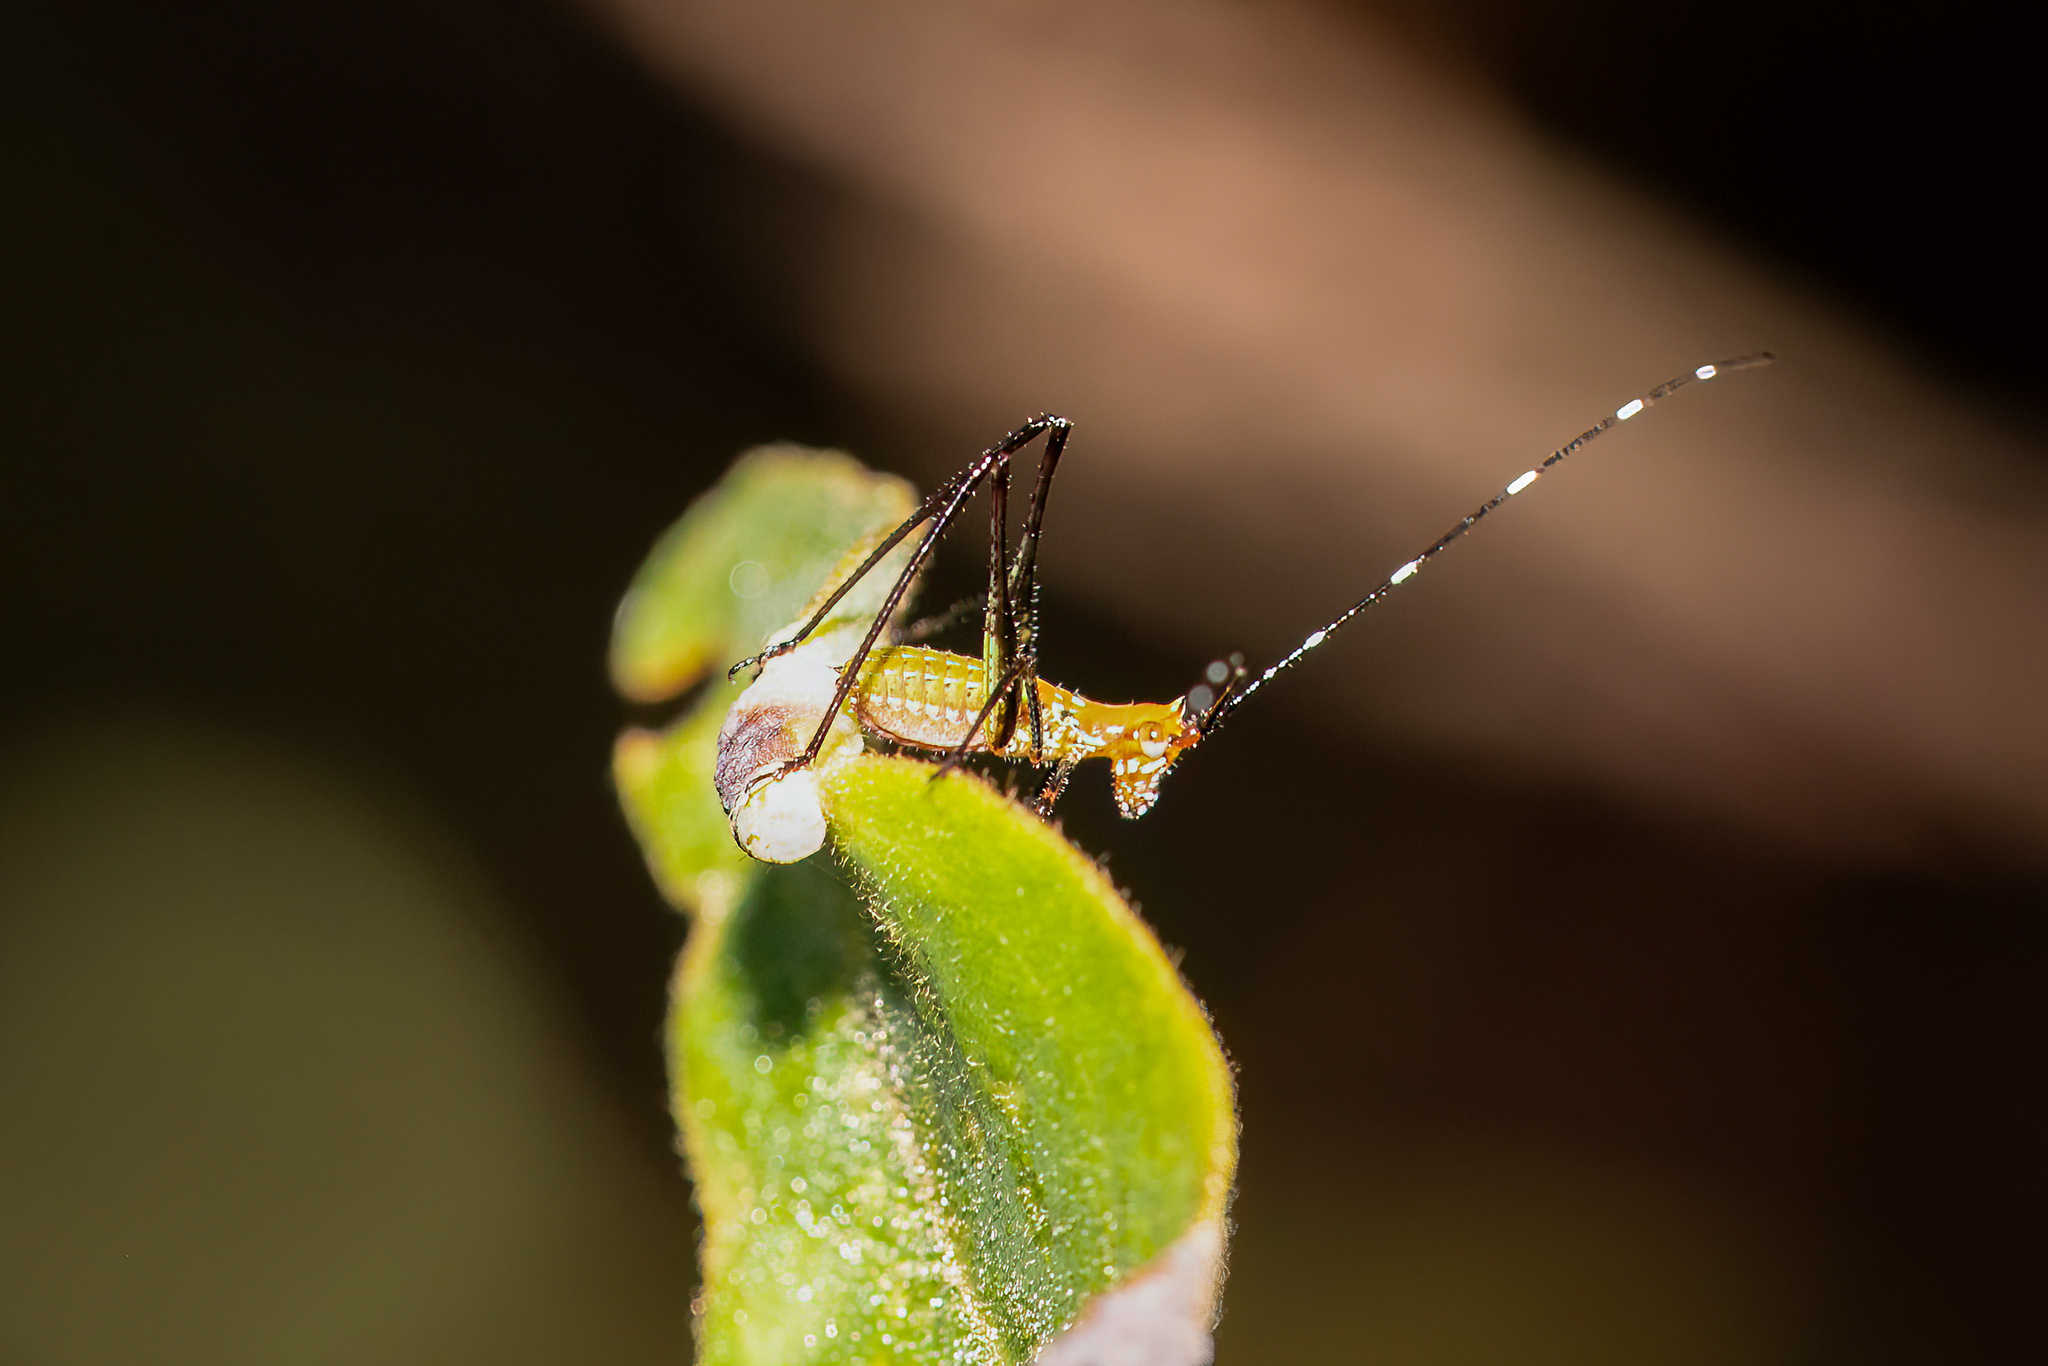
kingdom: Animalia
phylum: Arthropoda
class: Insecta
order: Orthoptera
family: Tettigoniidae
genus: Scudderia
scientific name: Scudderia cuneata
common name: Southeastern bush katydid
